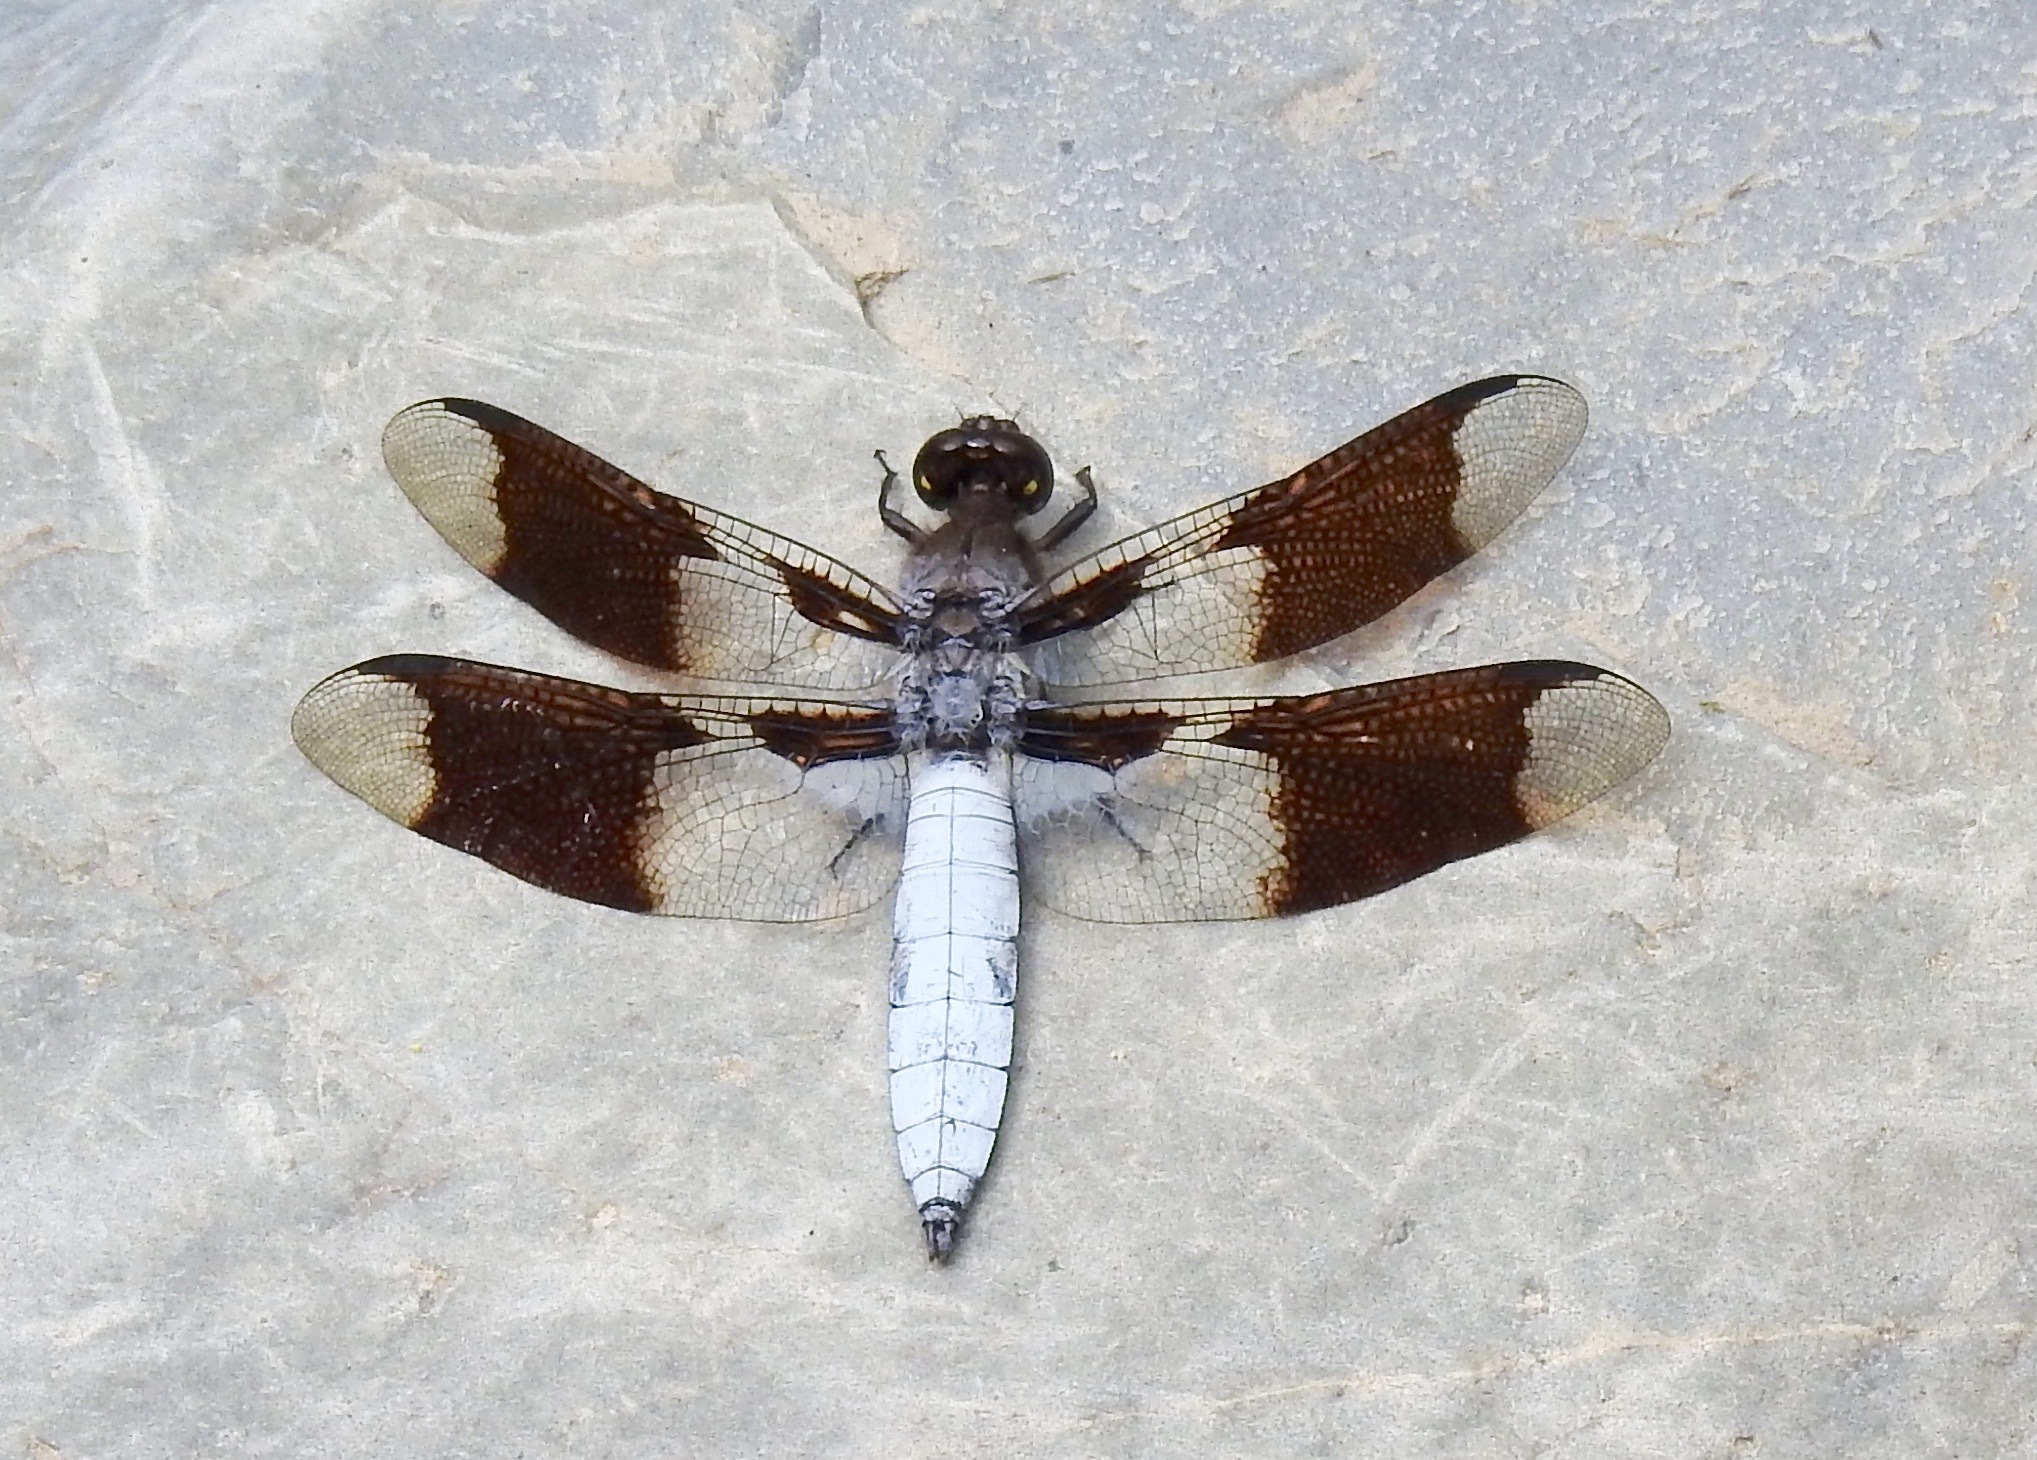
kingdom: Animalia
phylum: Arthropoda
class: Insecta
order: Odonata
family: Libellulidae
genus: Plathemis
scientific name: Plathemis lydia
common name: Common whitetail
